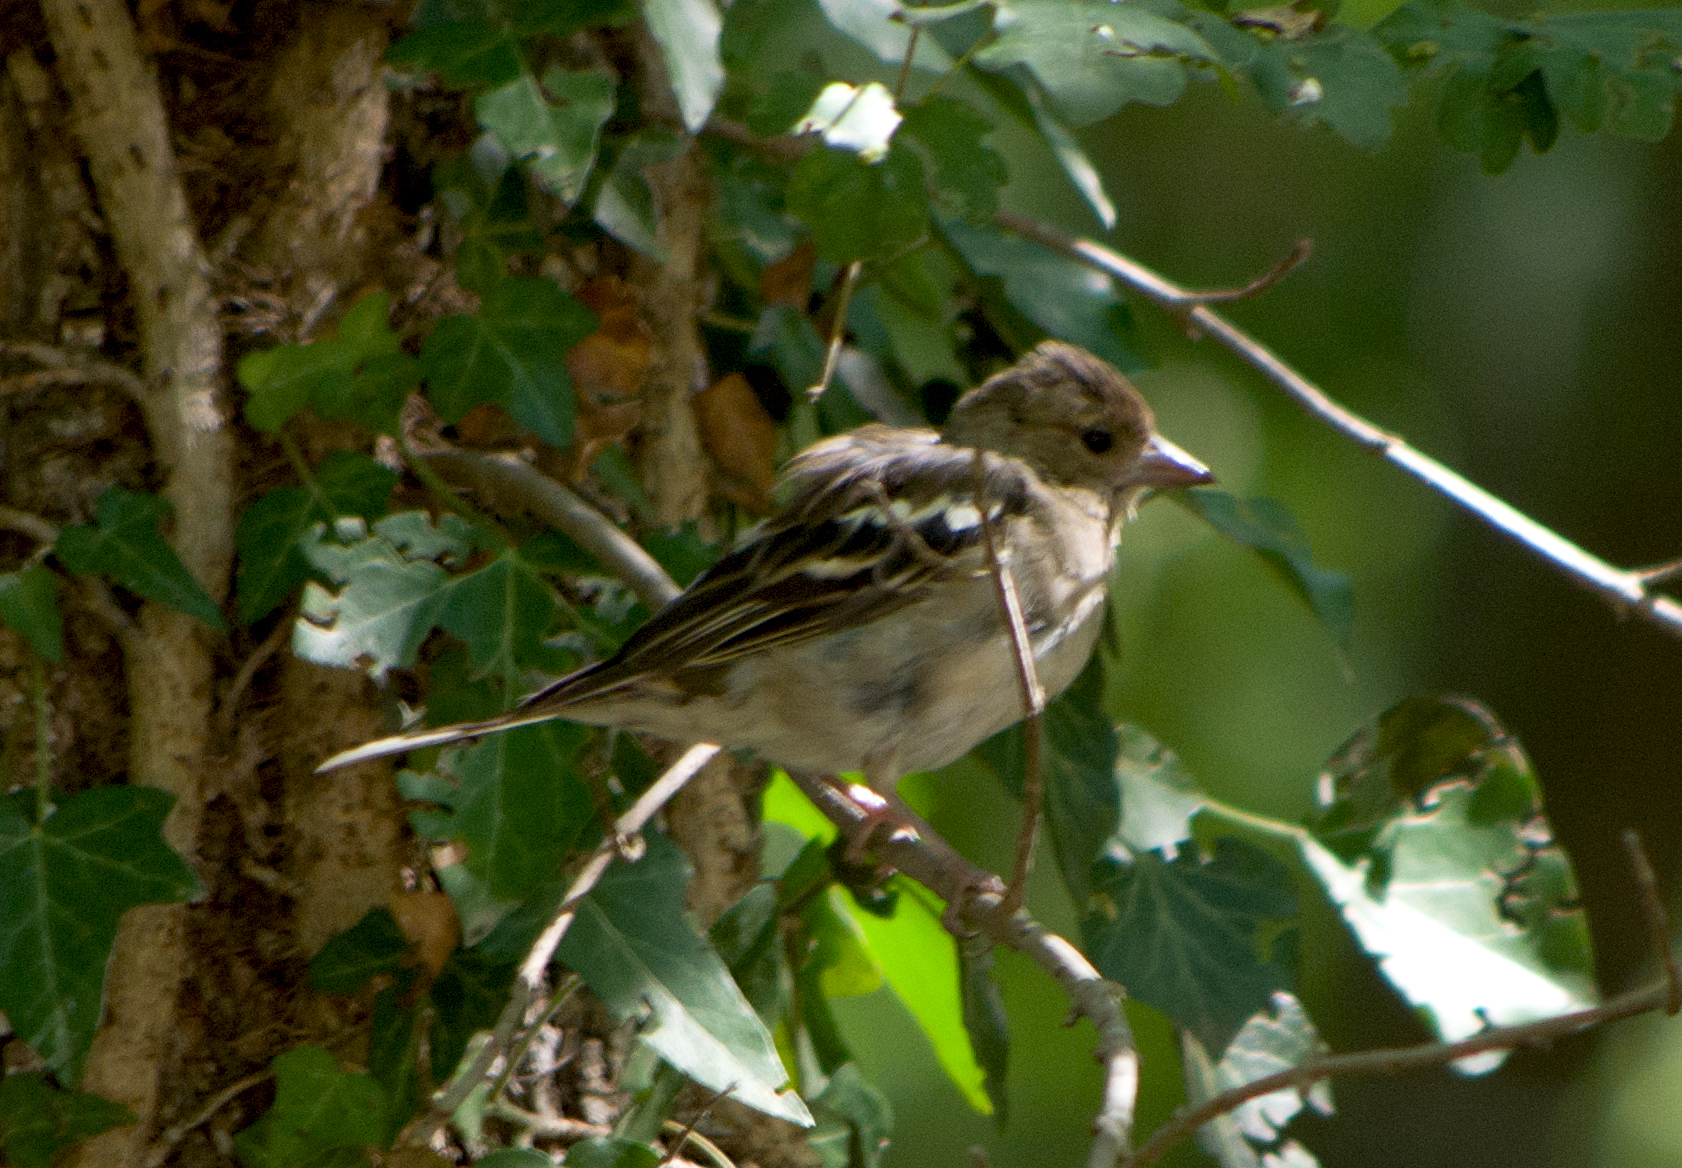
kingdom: Animalia
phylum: Chordata
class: Aves
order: Passeriformes
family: Fringillidae
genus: Fringilla
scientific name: Fringilla coelebs
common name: Common chaffinch
